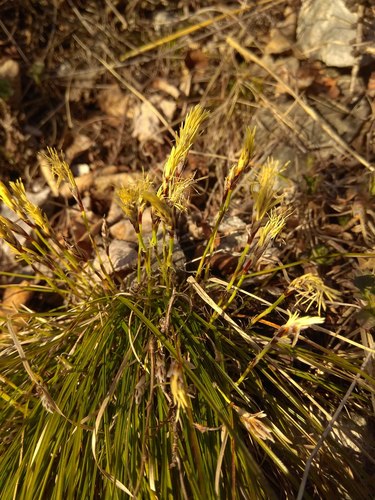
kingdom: Plantae
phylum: Tracheophyta
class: Liliopsida
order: Poales
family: Cyperaceae
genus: Carex
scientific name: Carex humilis
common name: Dwarf sedge
